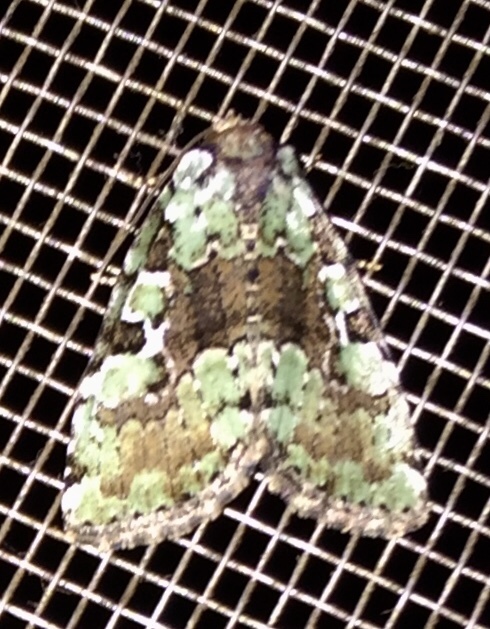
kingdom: Animalia
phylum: Arthropoda
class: Insecta
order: Lepidoptera
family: Noctuidae
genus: Leuconycta
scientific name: Leuconycta lepidula
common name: Marbled-green leuconycta moth
